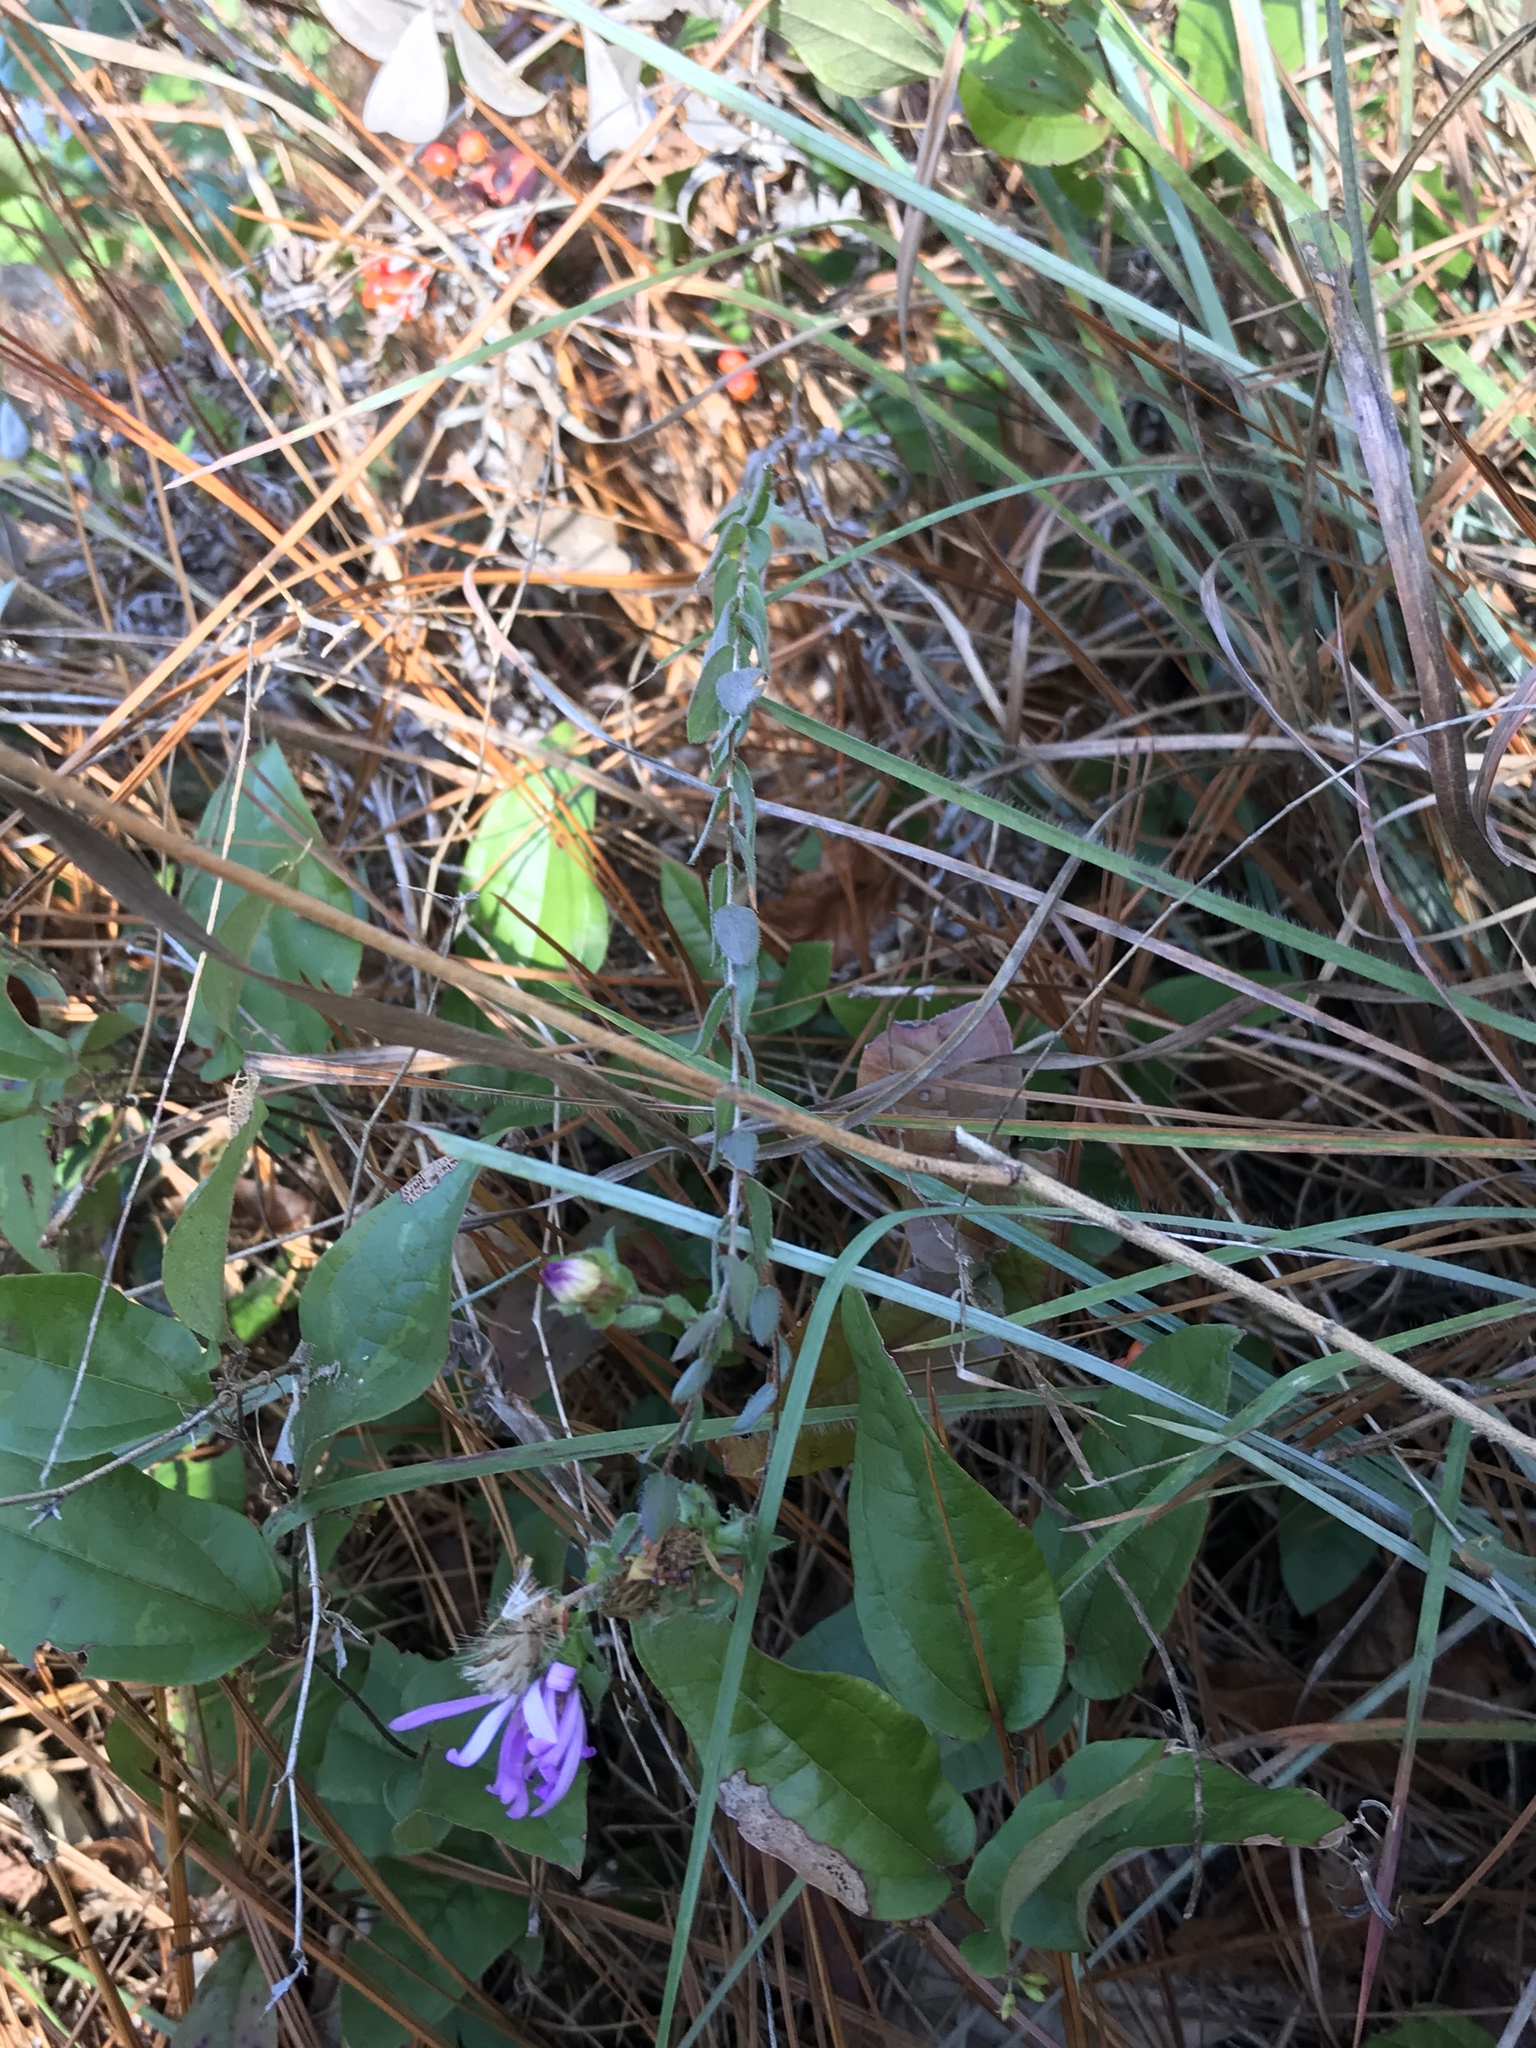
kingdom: Plantae
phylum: Tracheophyta
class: Magnoliopsida
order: Asterales
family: Asteraceae
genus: Symphyotrichum
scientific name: Symphyotrichum pratense
